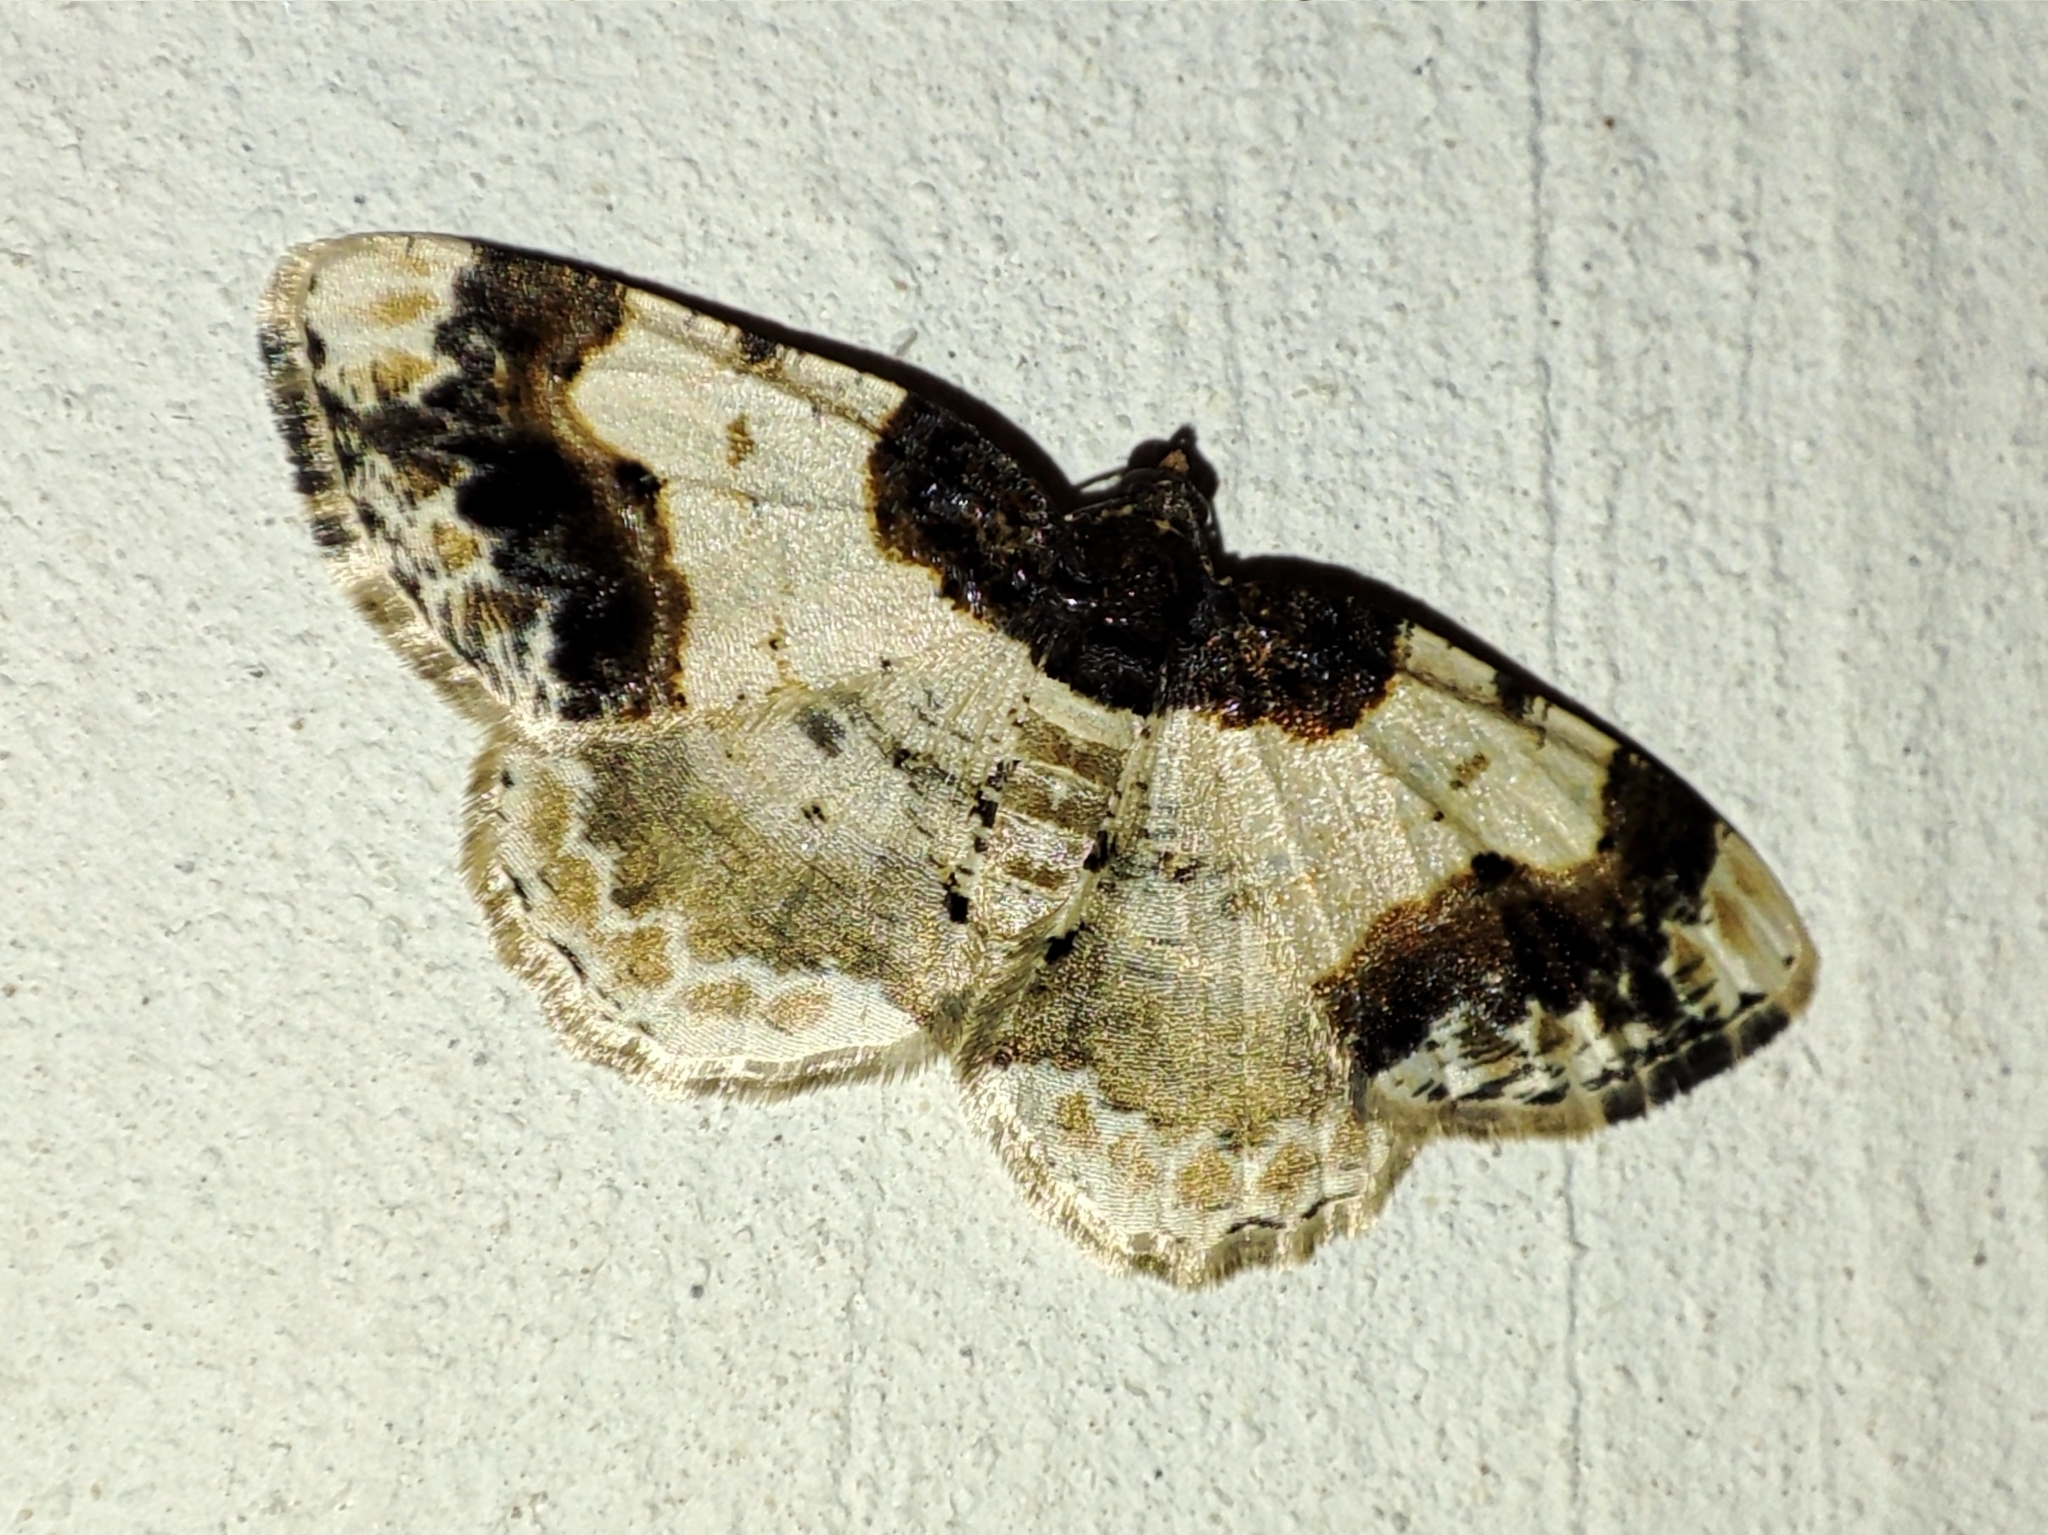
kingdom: Animalia
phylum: Arthropoda
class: Insecta
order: Lepidoptera
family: Geometridae
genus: Ligdia
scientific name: Ligdia adustata
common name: Scorched carpet
